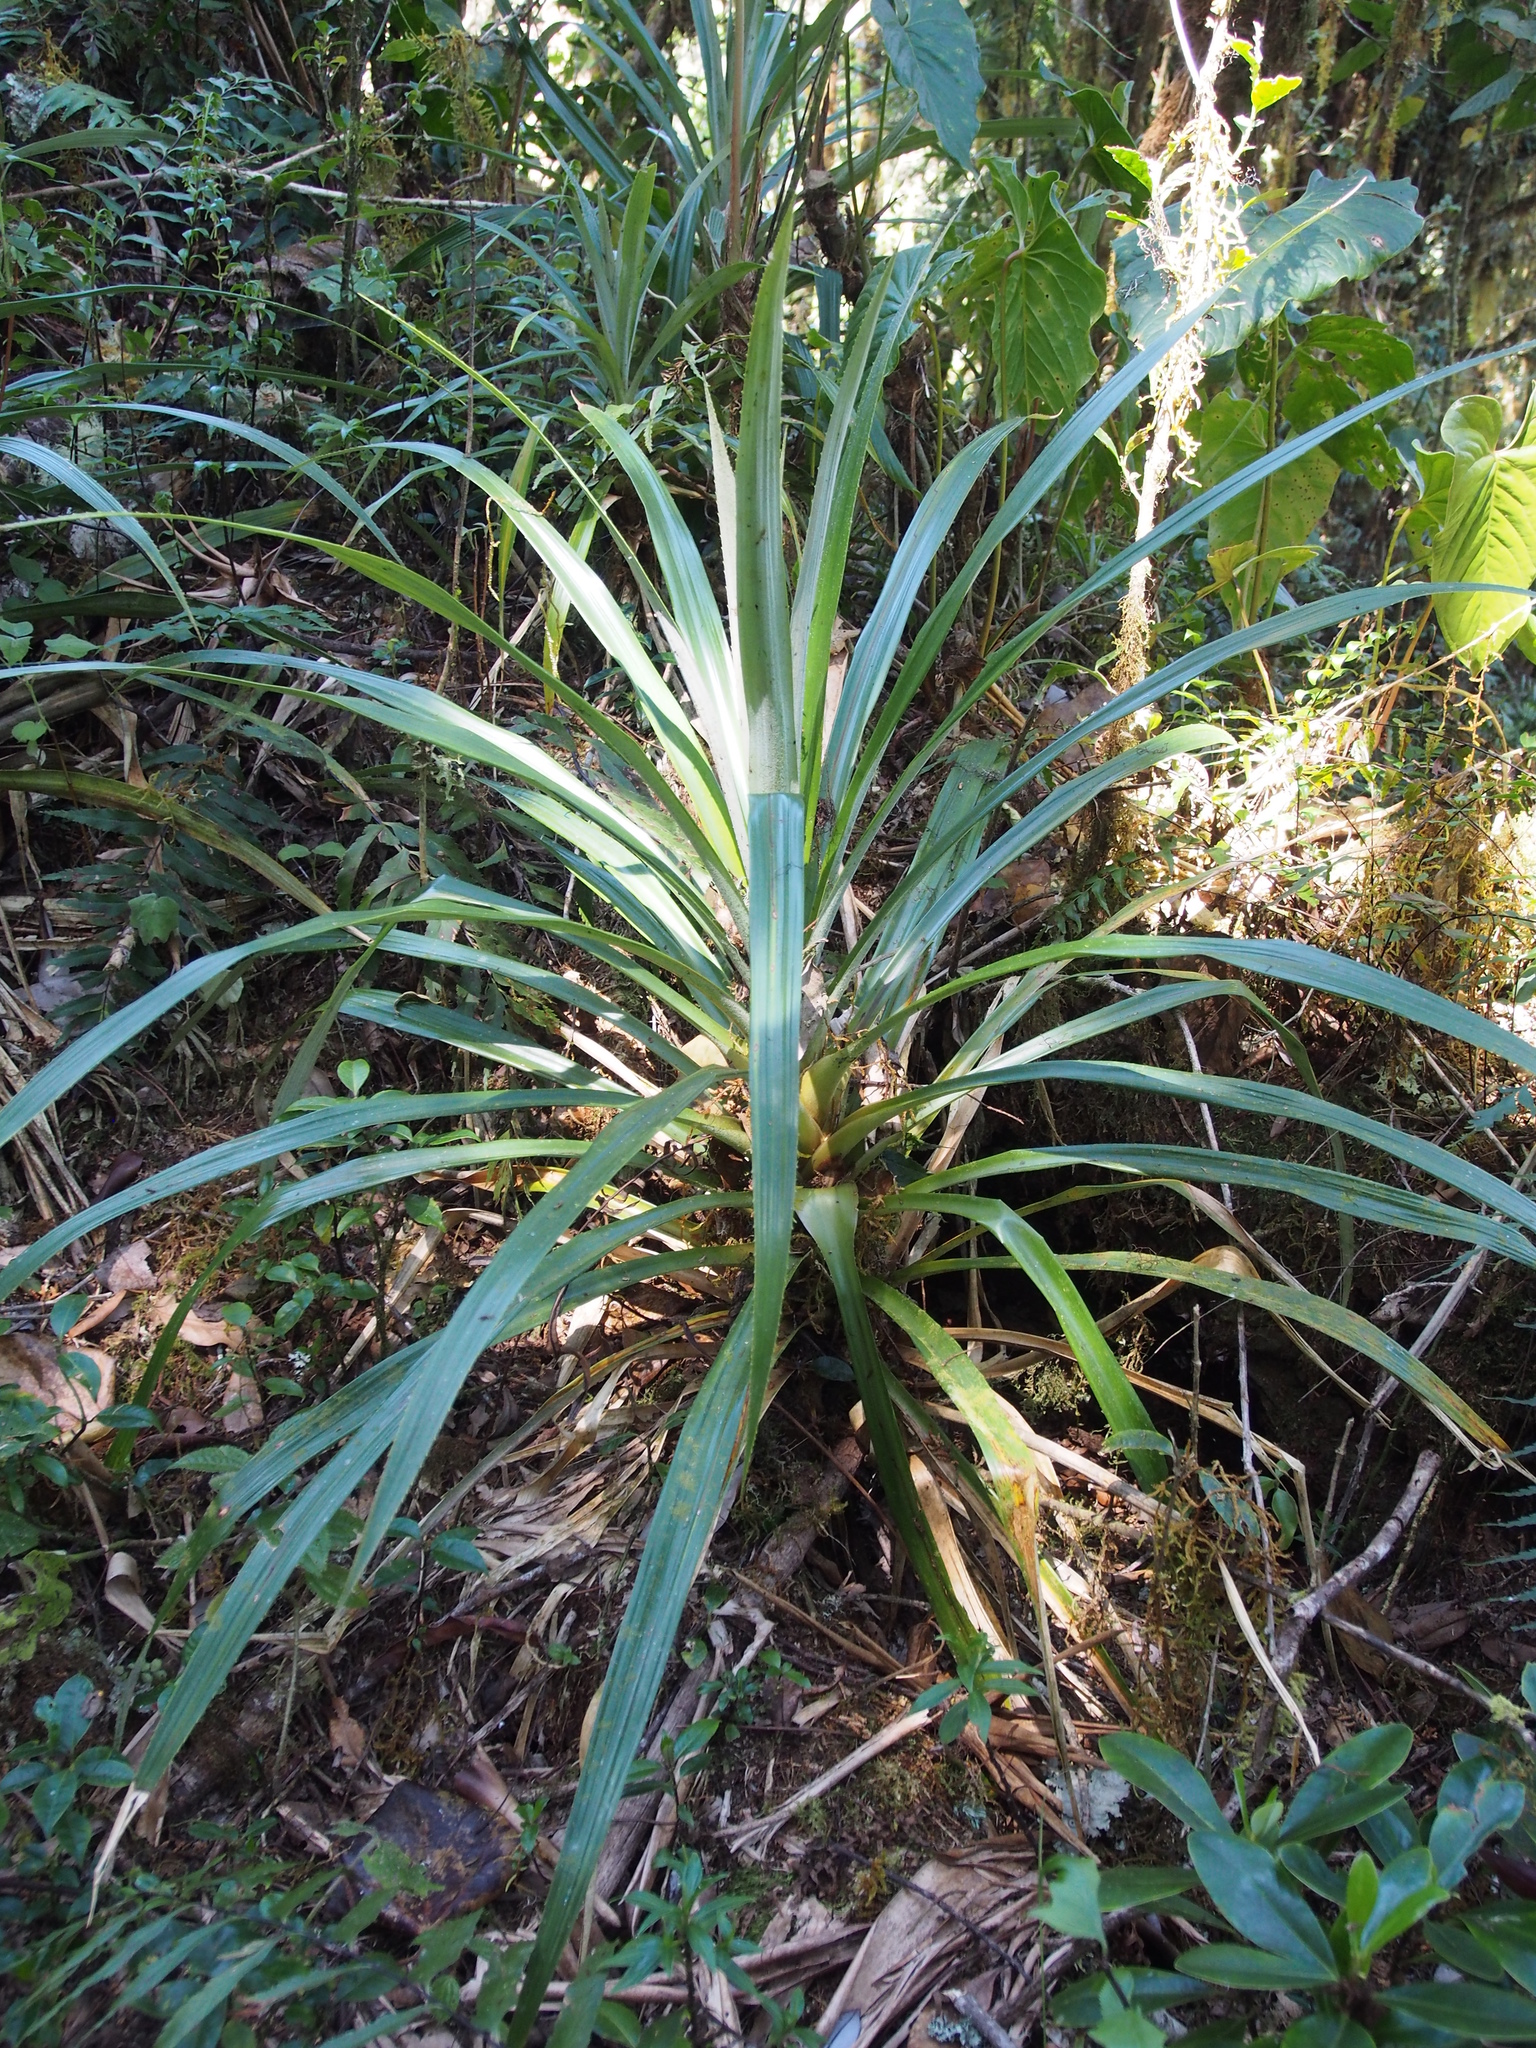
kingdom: Plantae
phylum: Tracheophyta
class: Liliopsida
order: Poales
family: Bromeliaceae
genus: Greigia
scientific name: Greigia sylvicola
